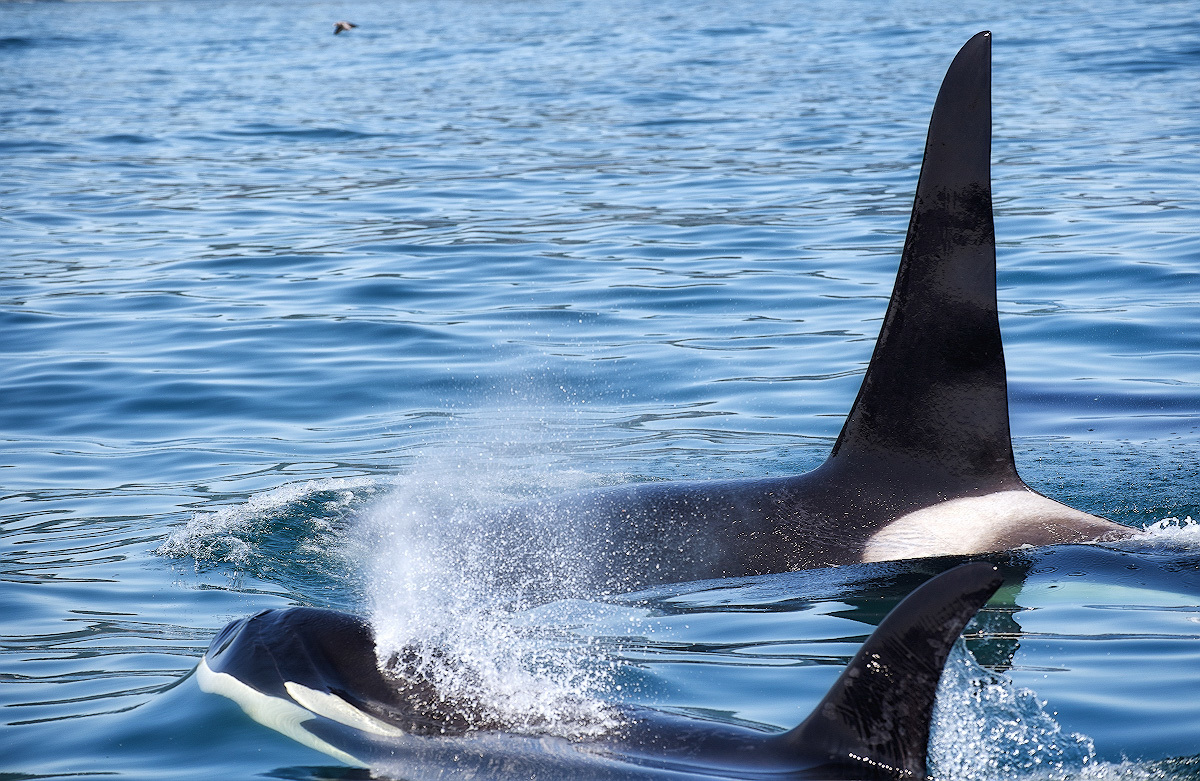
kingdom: Animalia
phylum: Chordata
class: Mammalia
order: Cetacea
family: Delphinidae
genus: Orcinus
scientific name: Orcinus orca
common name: Killer whale
